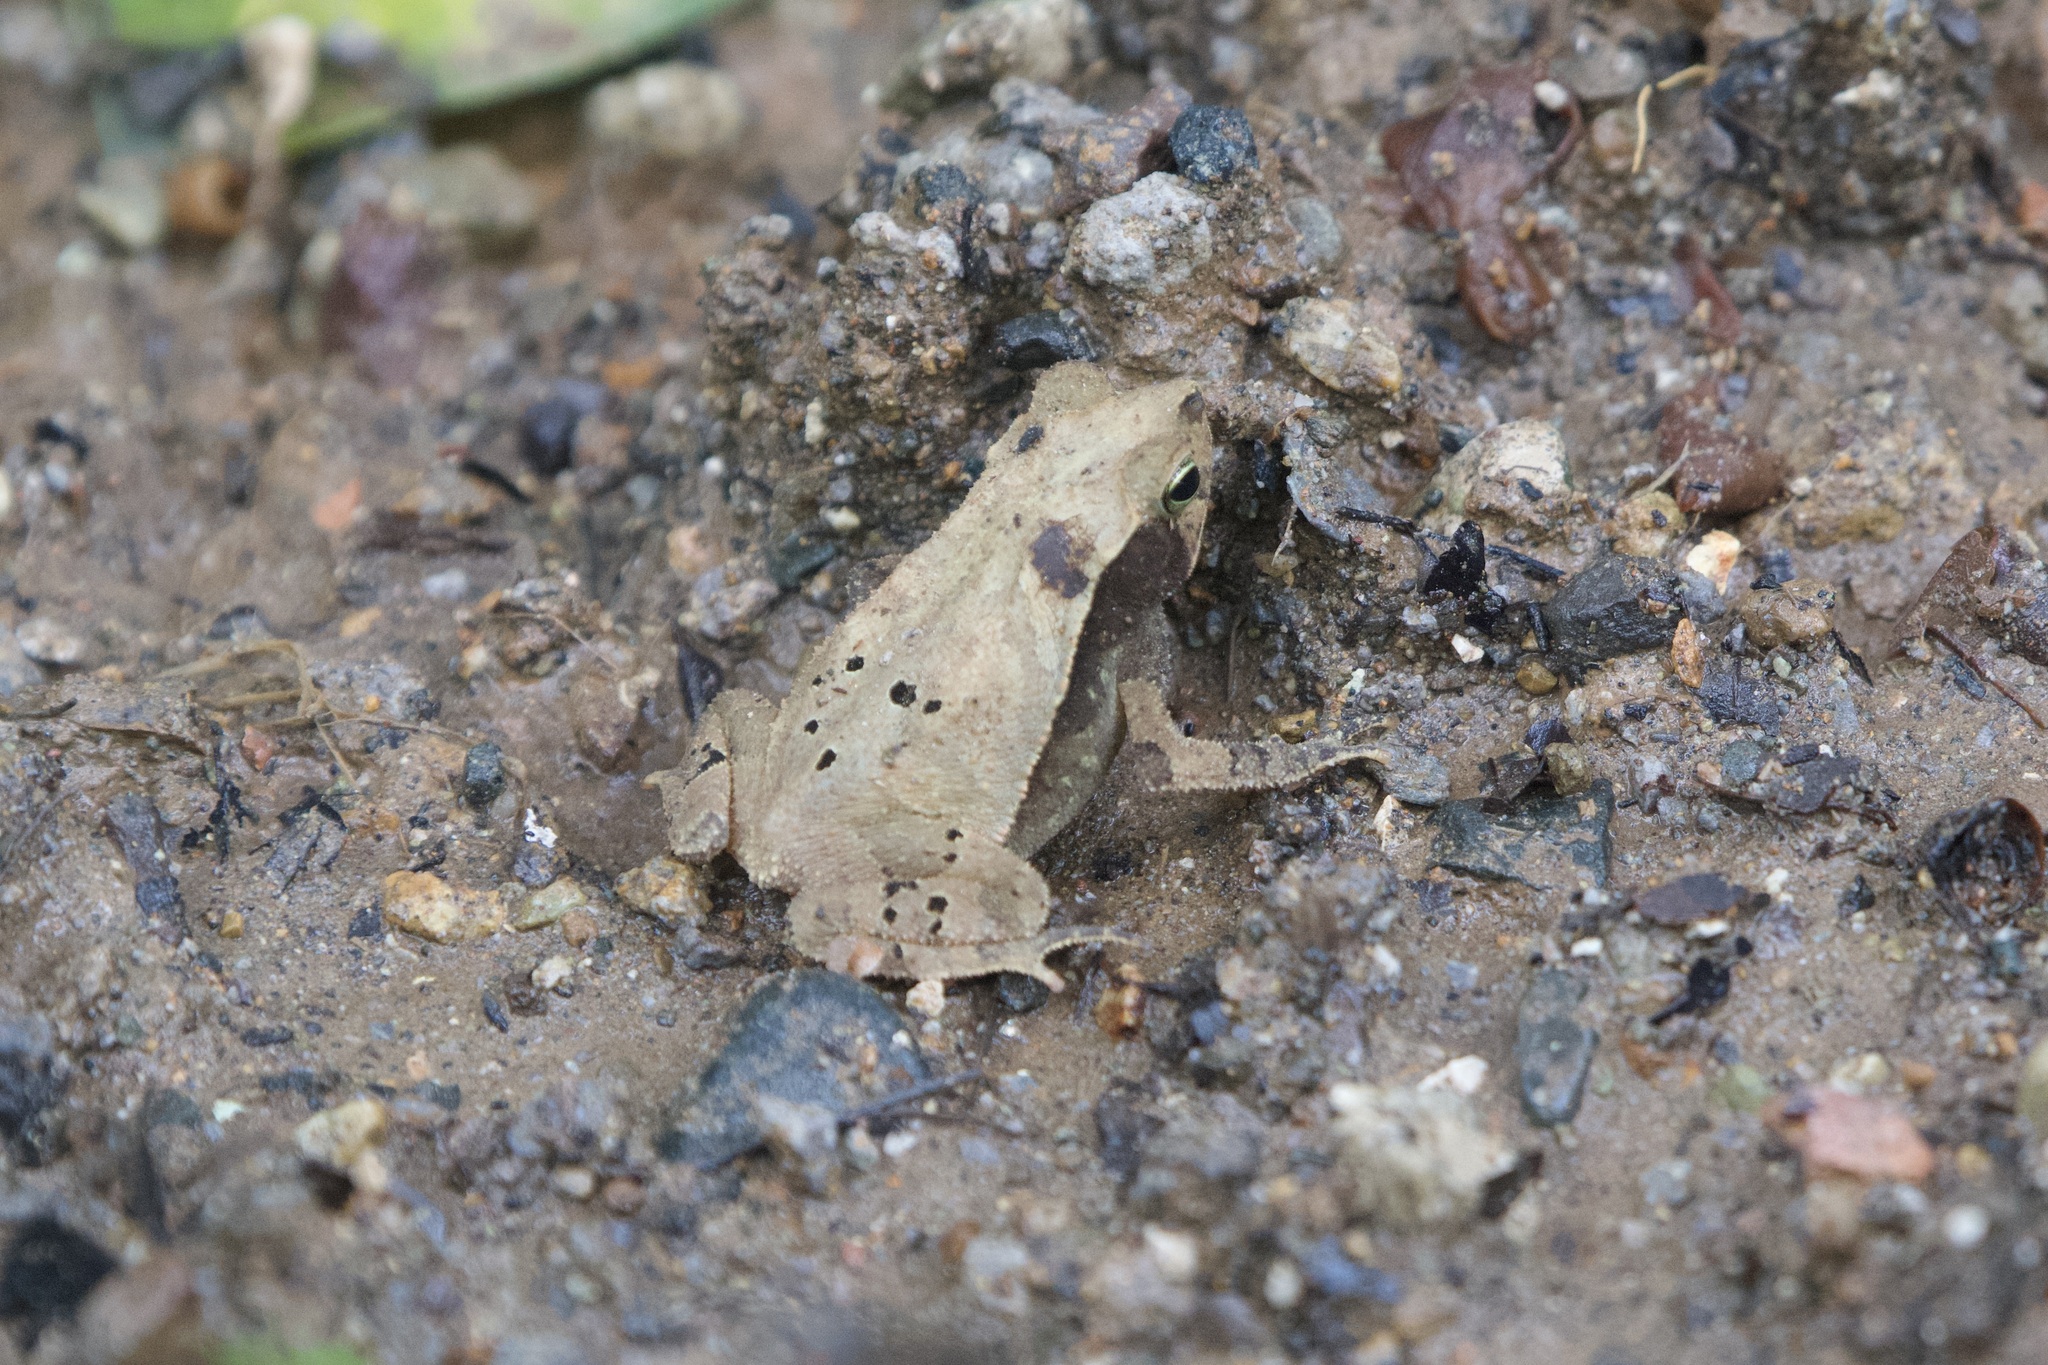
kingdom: Animalia
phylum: Chordata
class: Amphibia
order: Anura
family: Bufonidae
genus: Rhinella
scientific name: Rhinella alata
